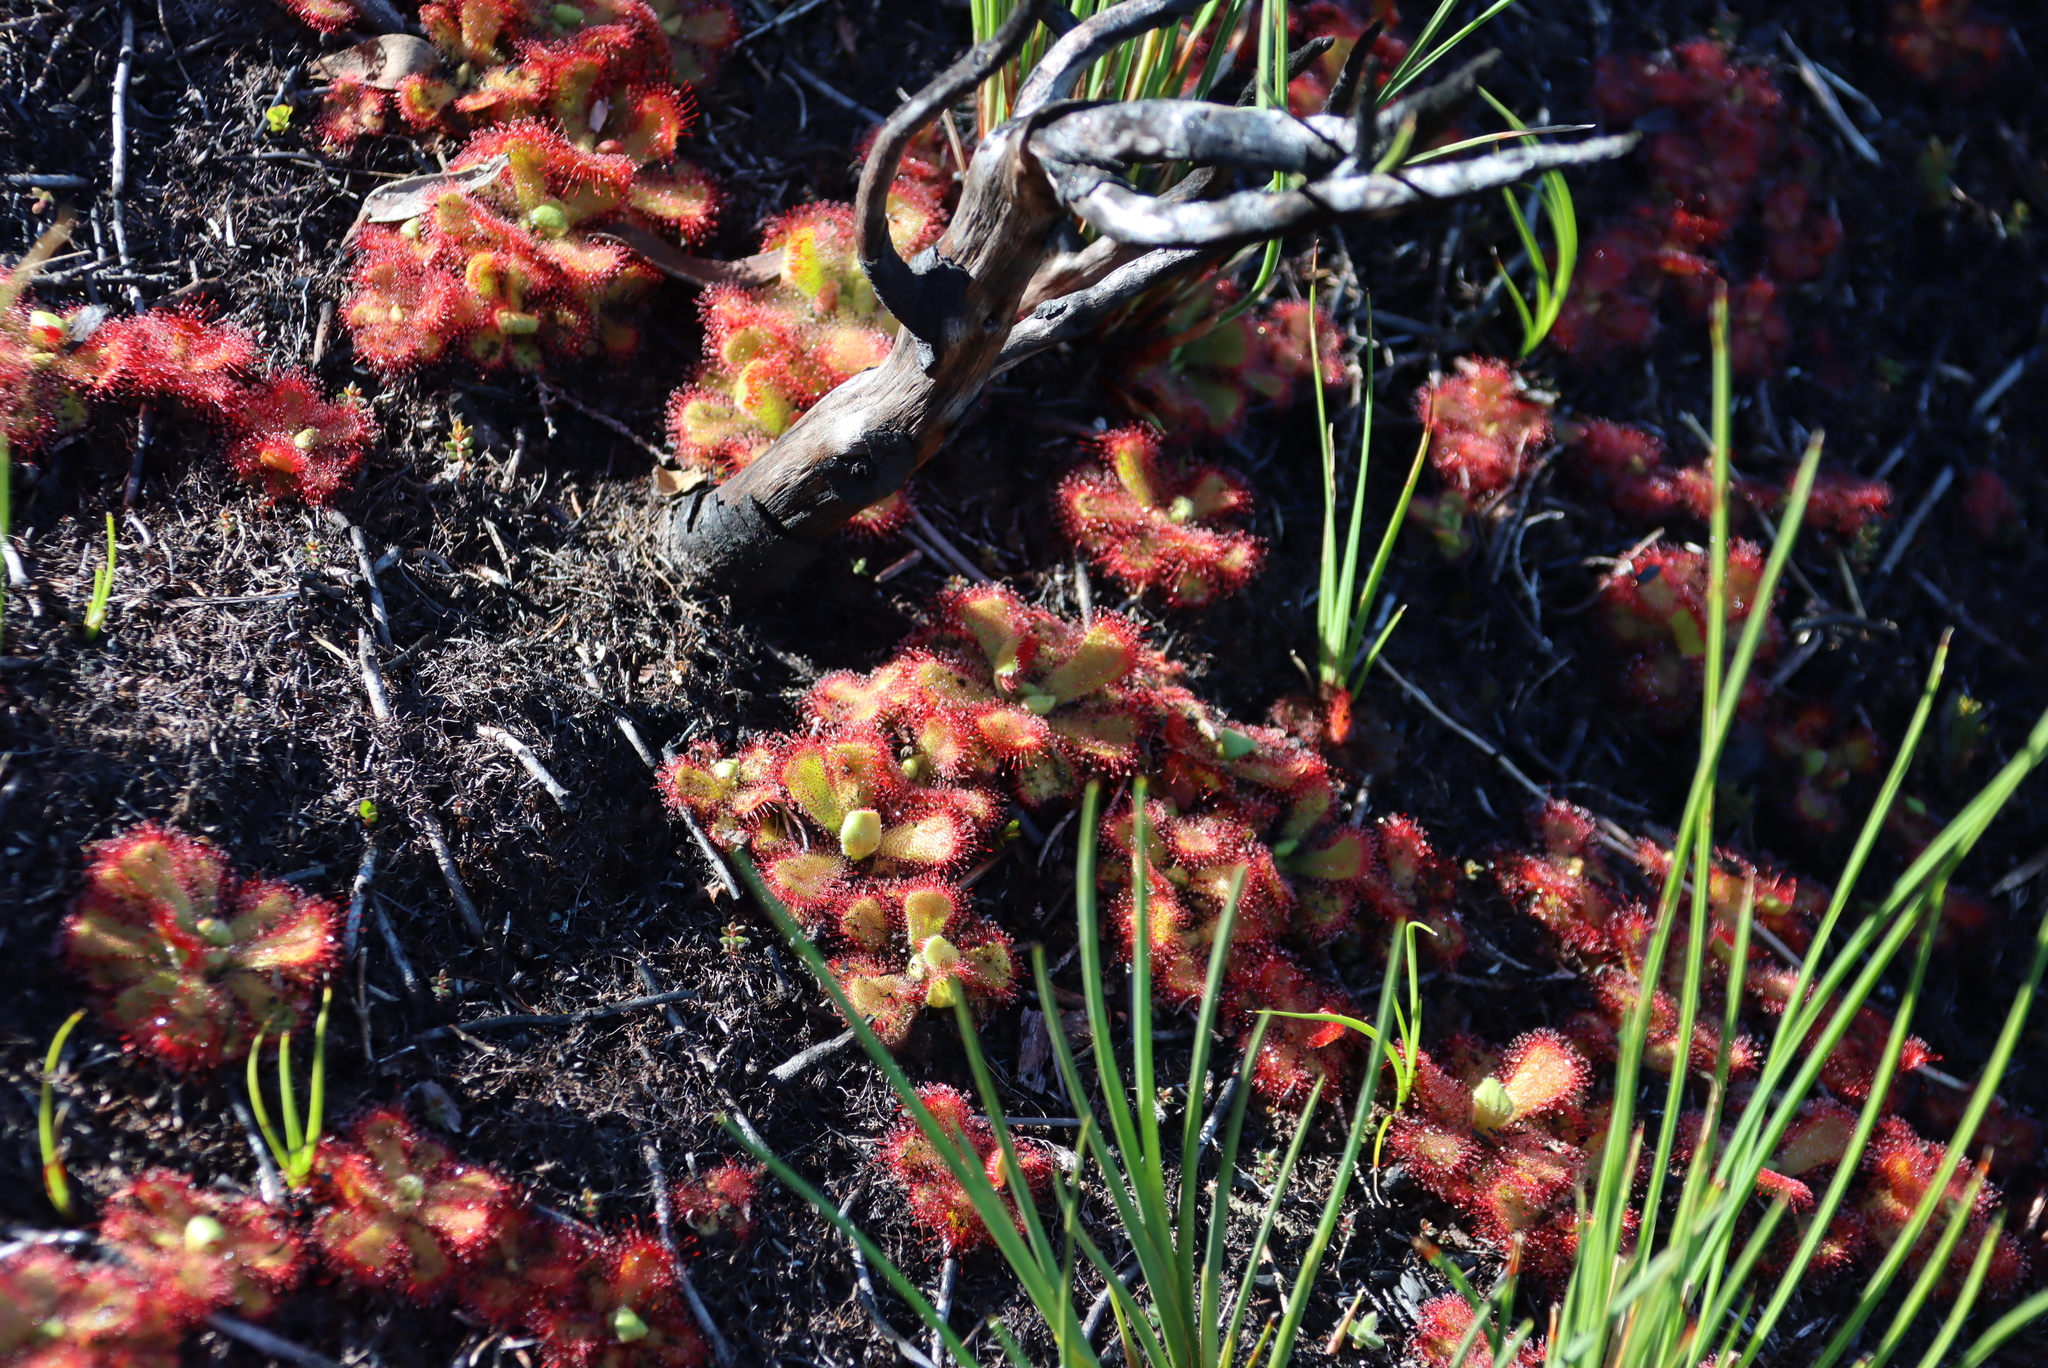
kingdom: Plantae
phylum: Tracheophyta
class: Magnoliopsida
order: Caryophyllales
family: Droseraceae
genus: Drosera
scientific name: Drosera cuneifolia
